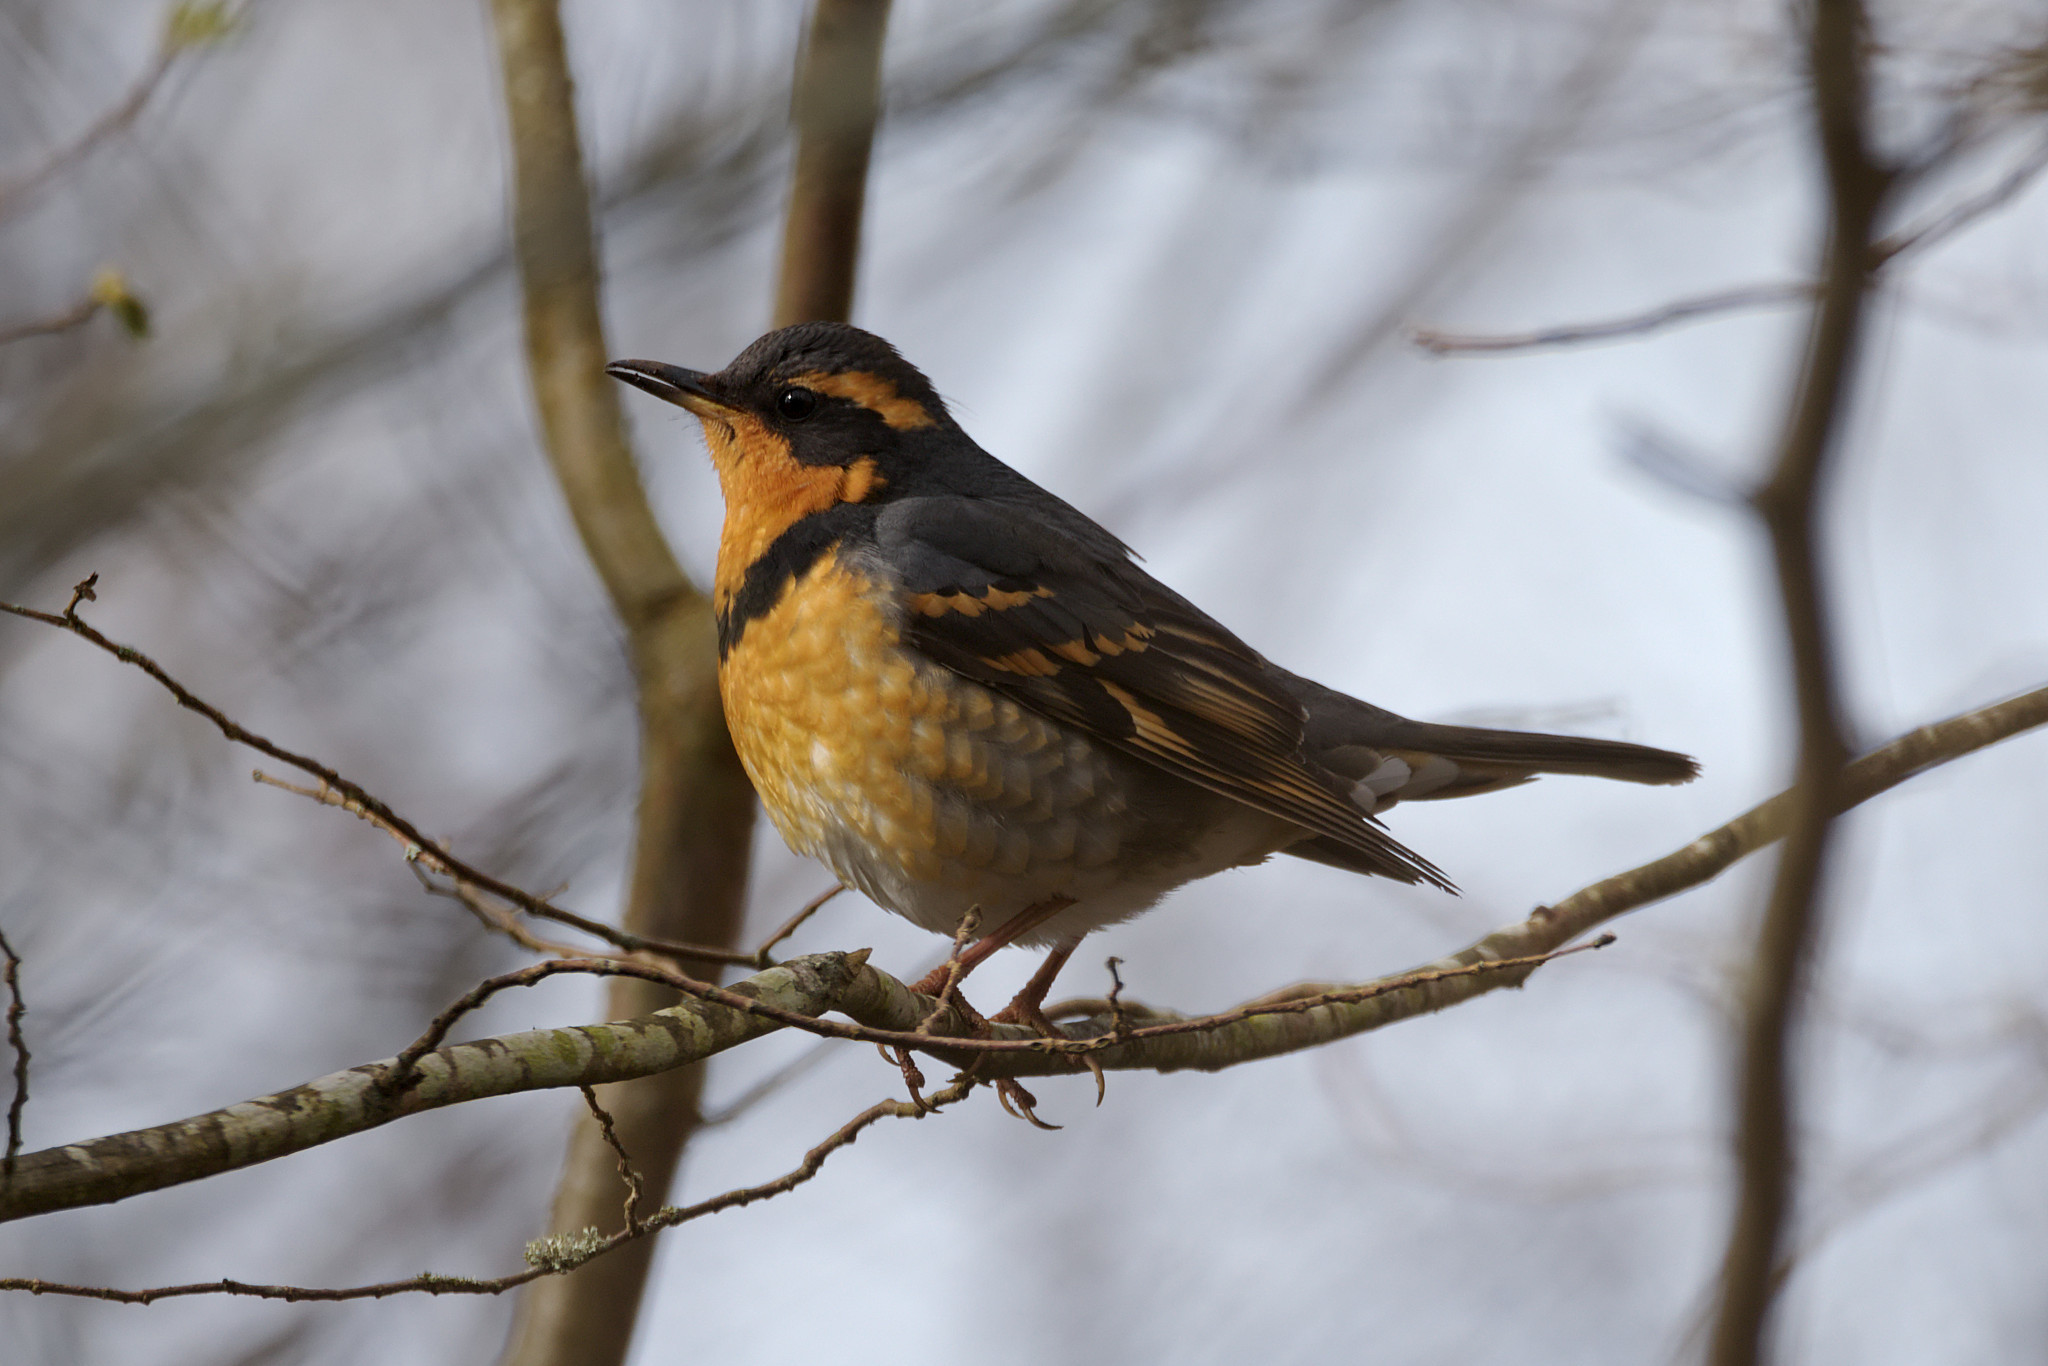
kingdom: Animalia
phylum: Chordata
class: Aves
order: Passeriformes
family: Turdidae
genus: Ixoreus
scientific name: Ixoreus naevius
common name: Varied thrush
